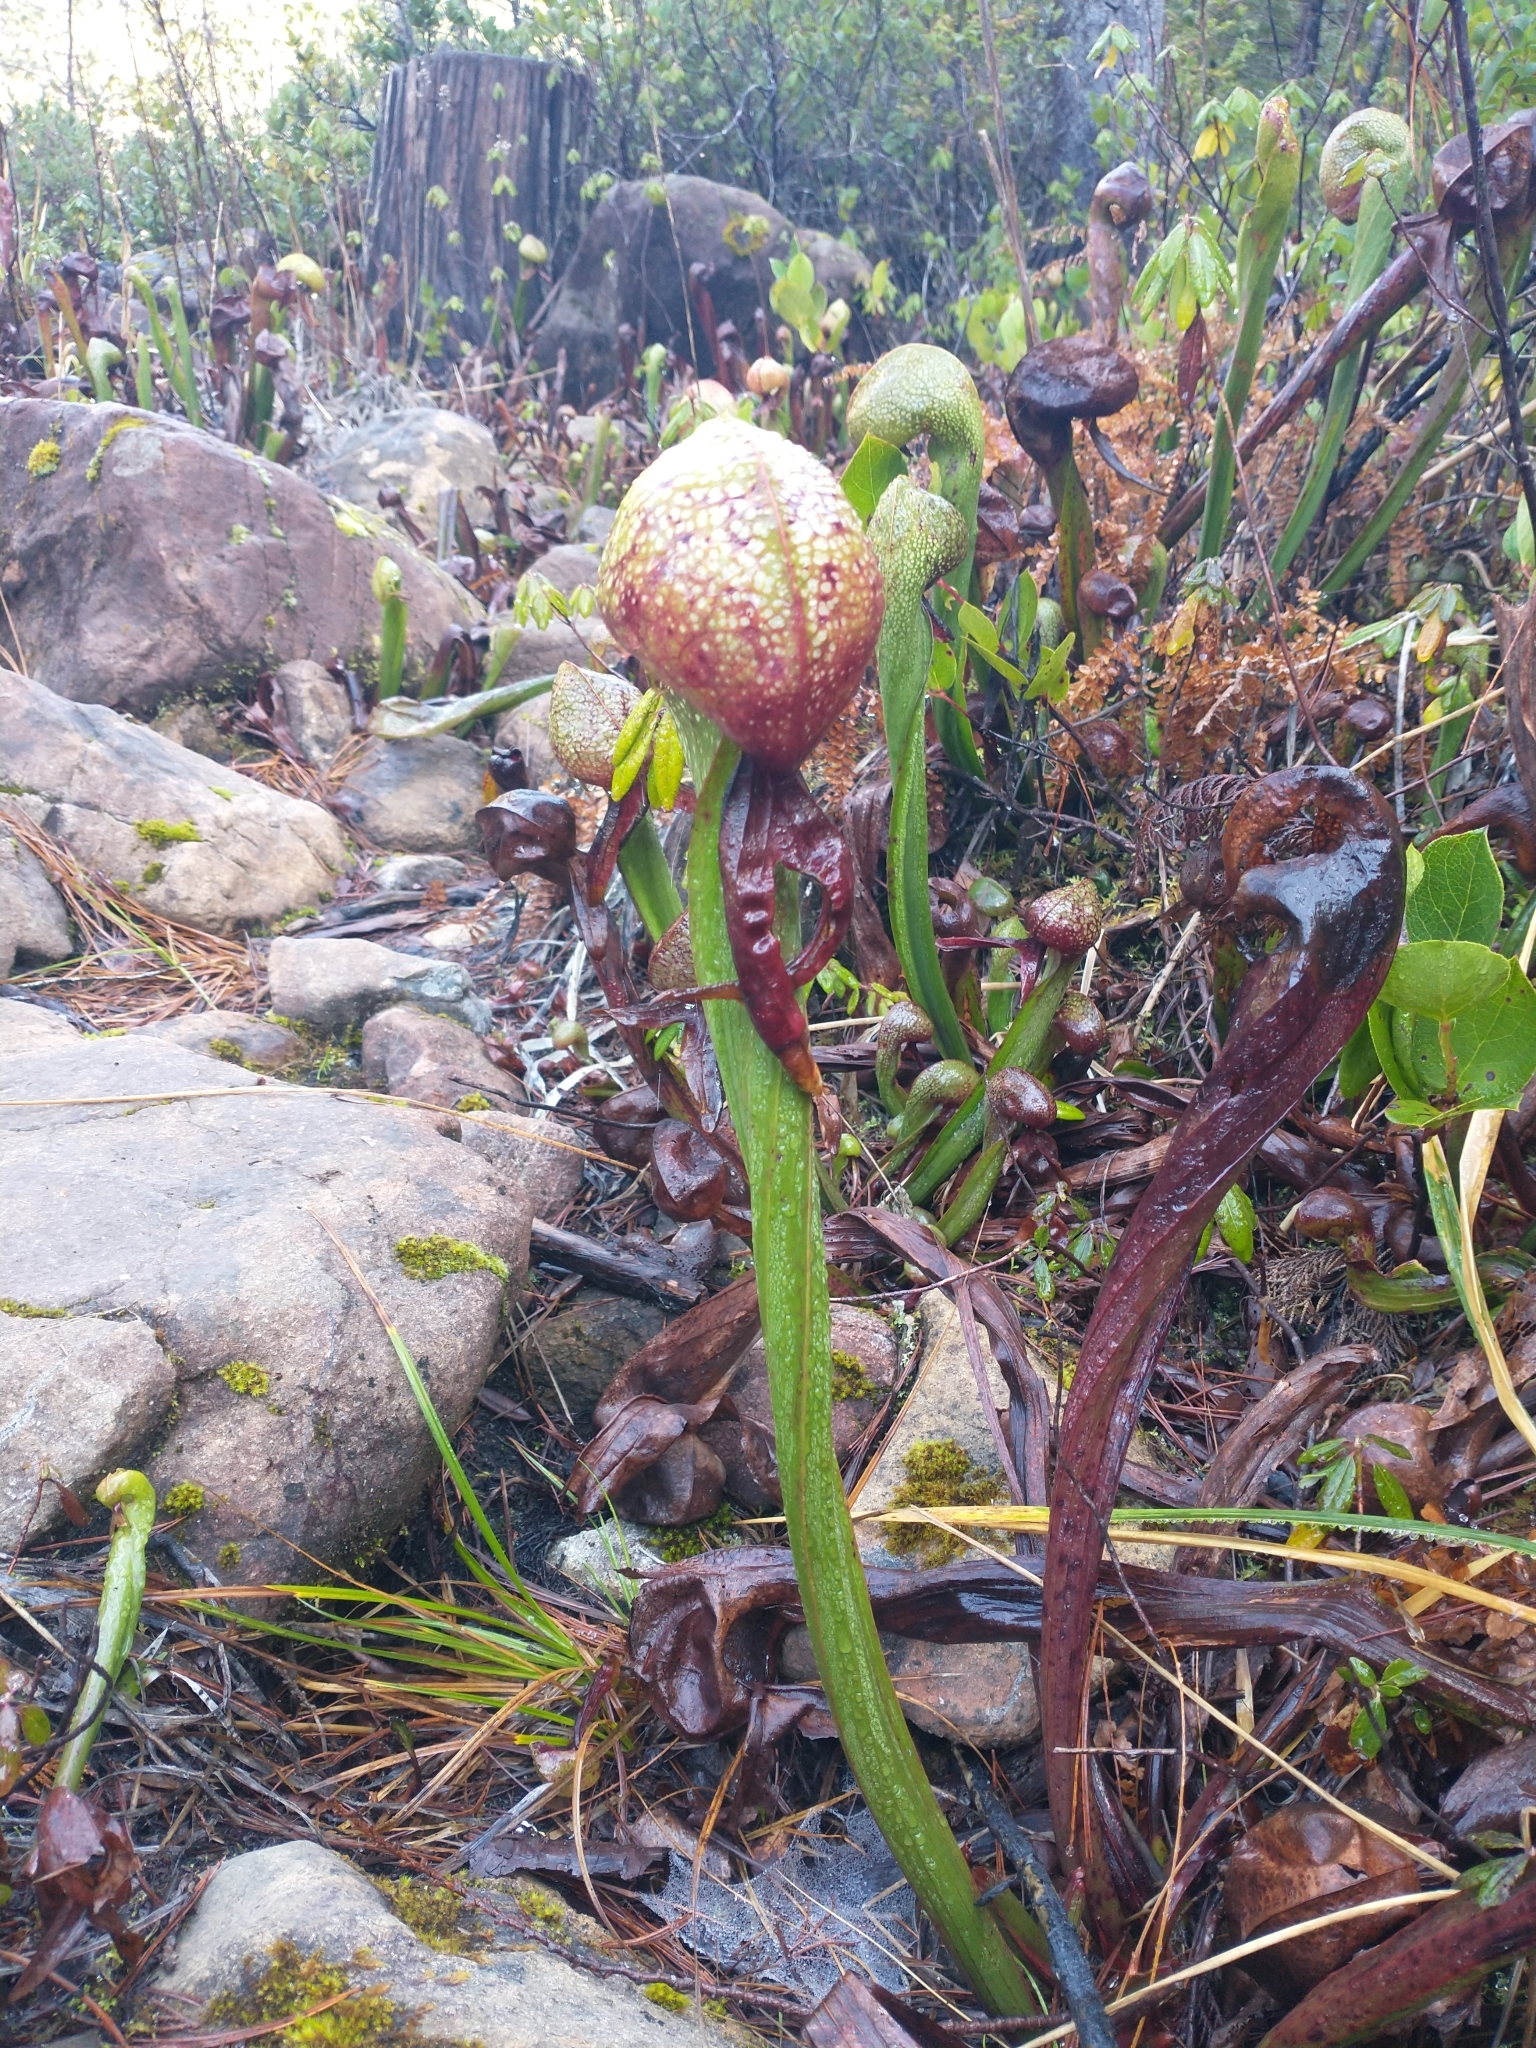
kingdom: Plantae
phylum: Tracheophyta
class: Magnoliopsida
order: Ericales
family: Sarraceniaceae
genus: Darlingtonia
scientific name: Darlingtonia californica
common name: California pitcher plant
